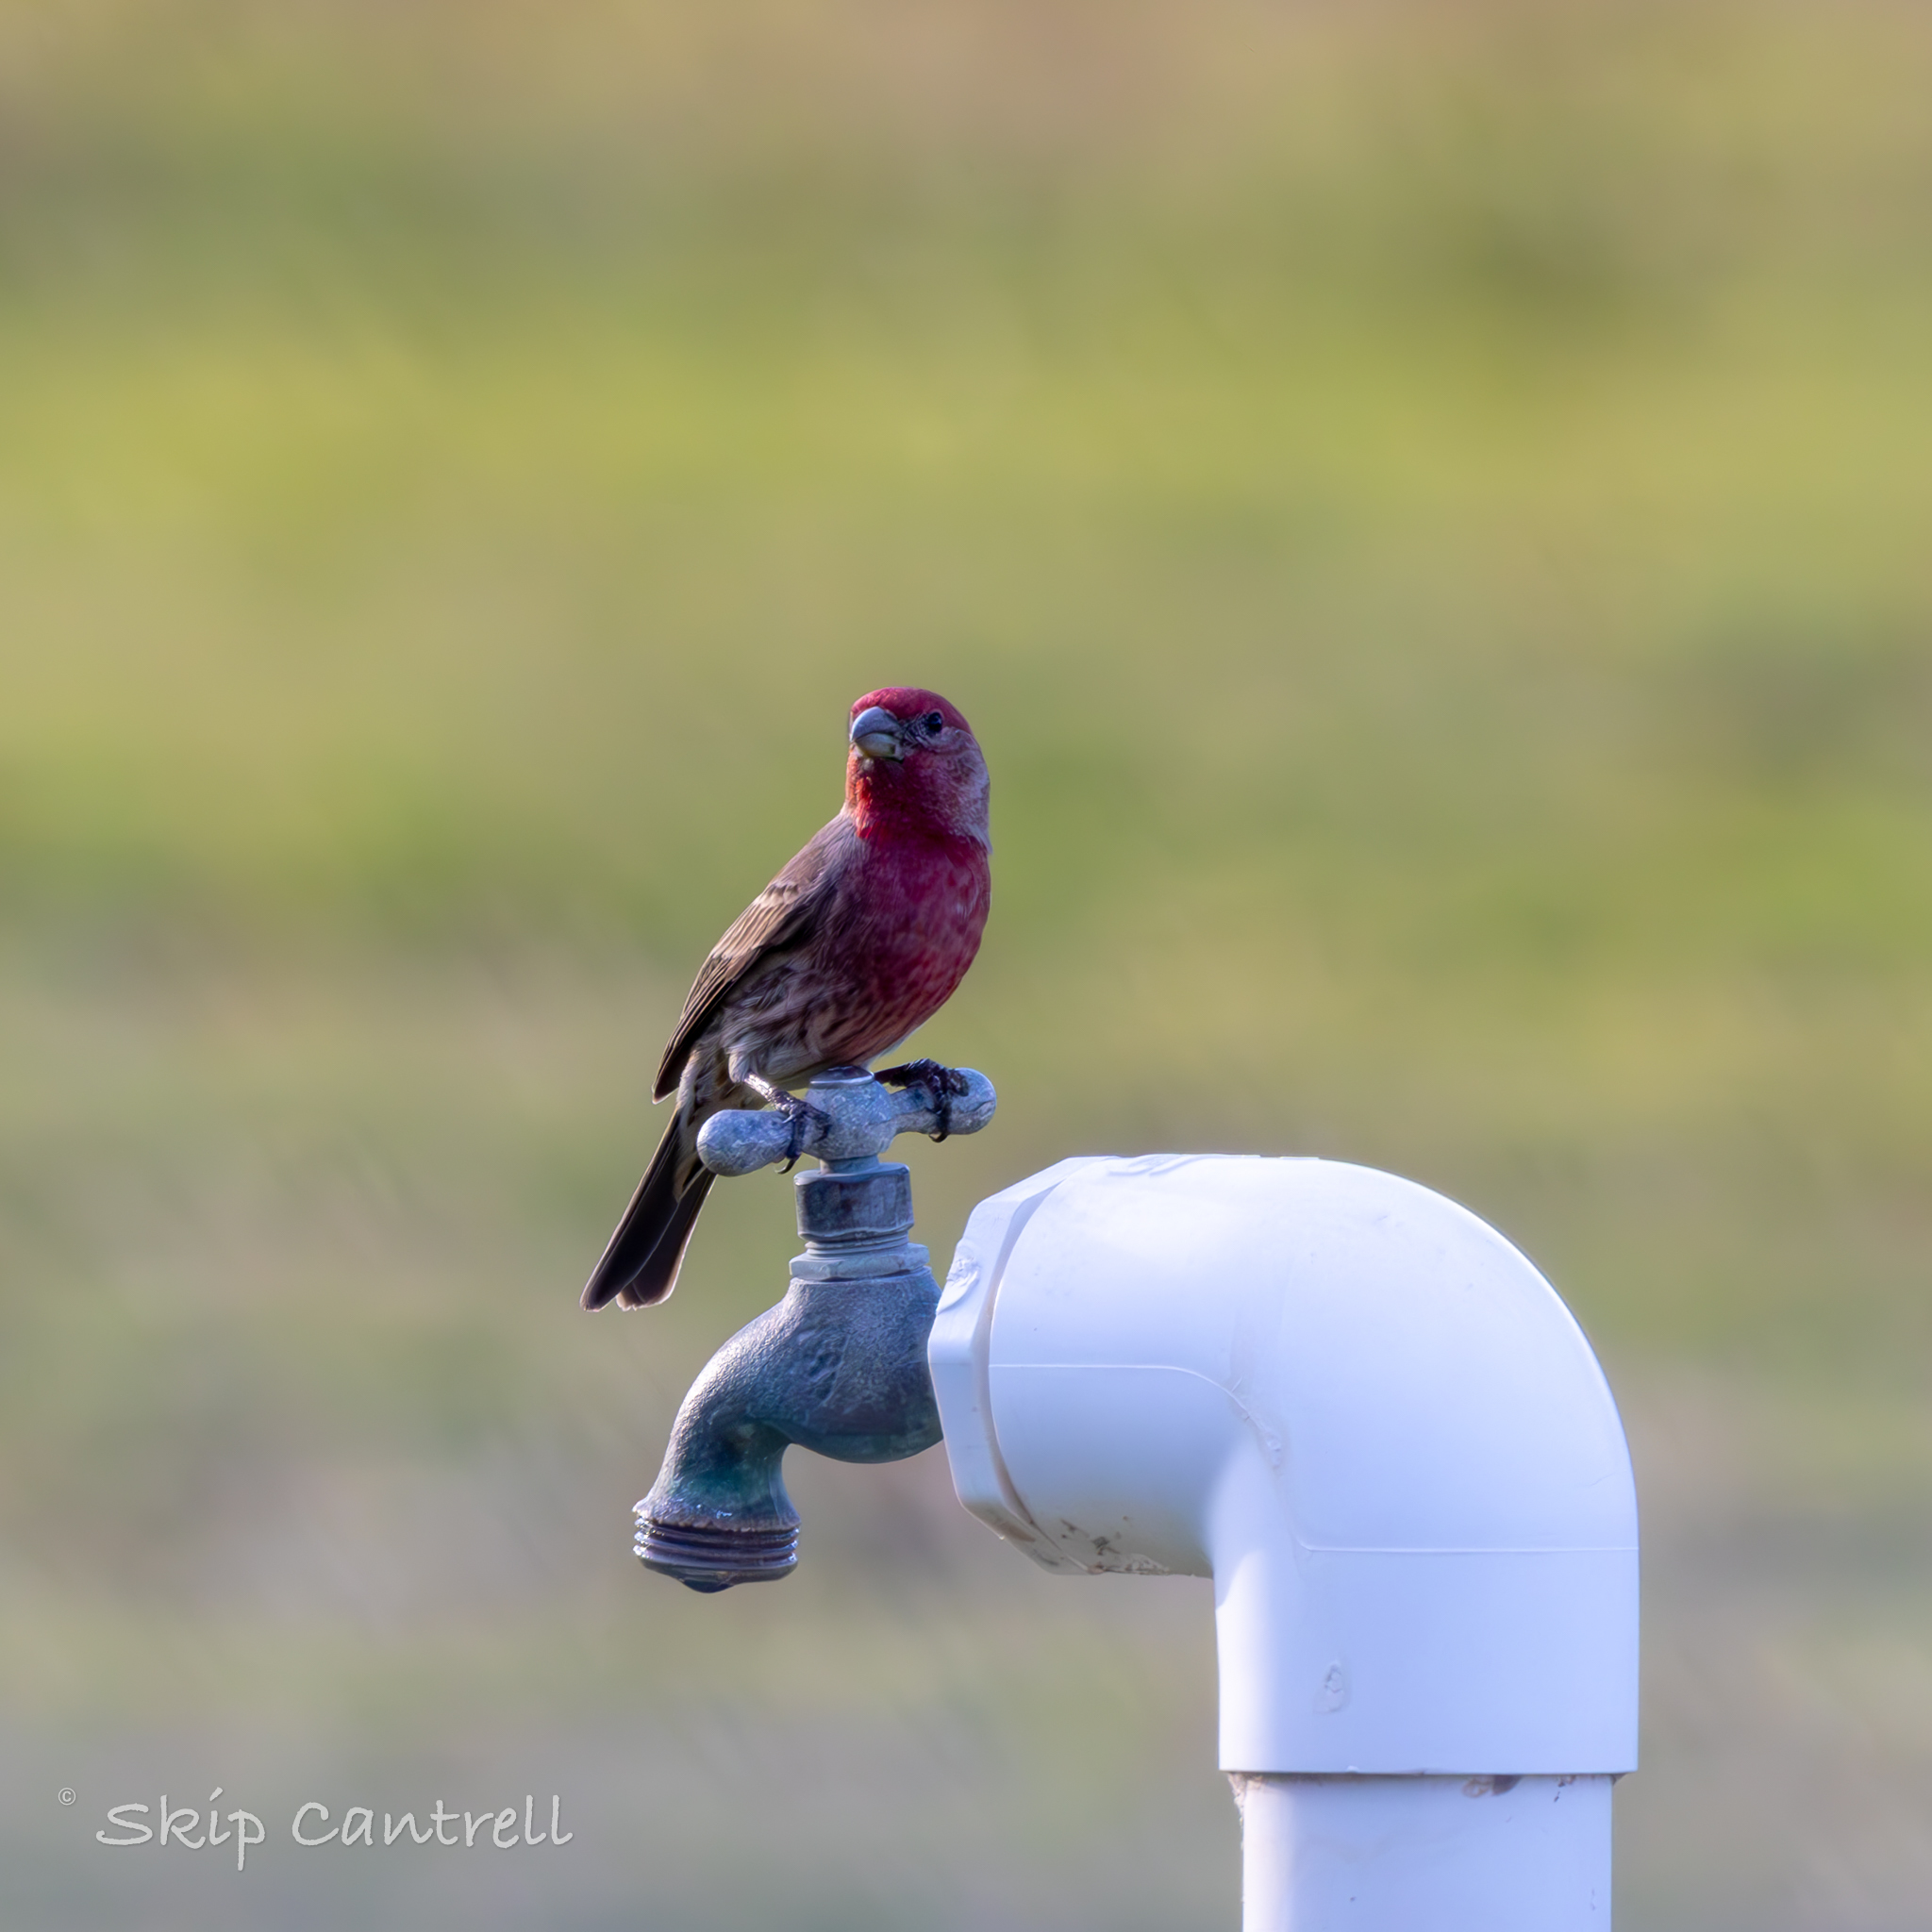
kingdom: Animalia
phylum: Chordata
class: Aves
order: Passeriformes
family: Fringillidae
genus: Haemorhous
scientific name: Haemorhous mexicanus
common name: House finch
